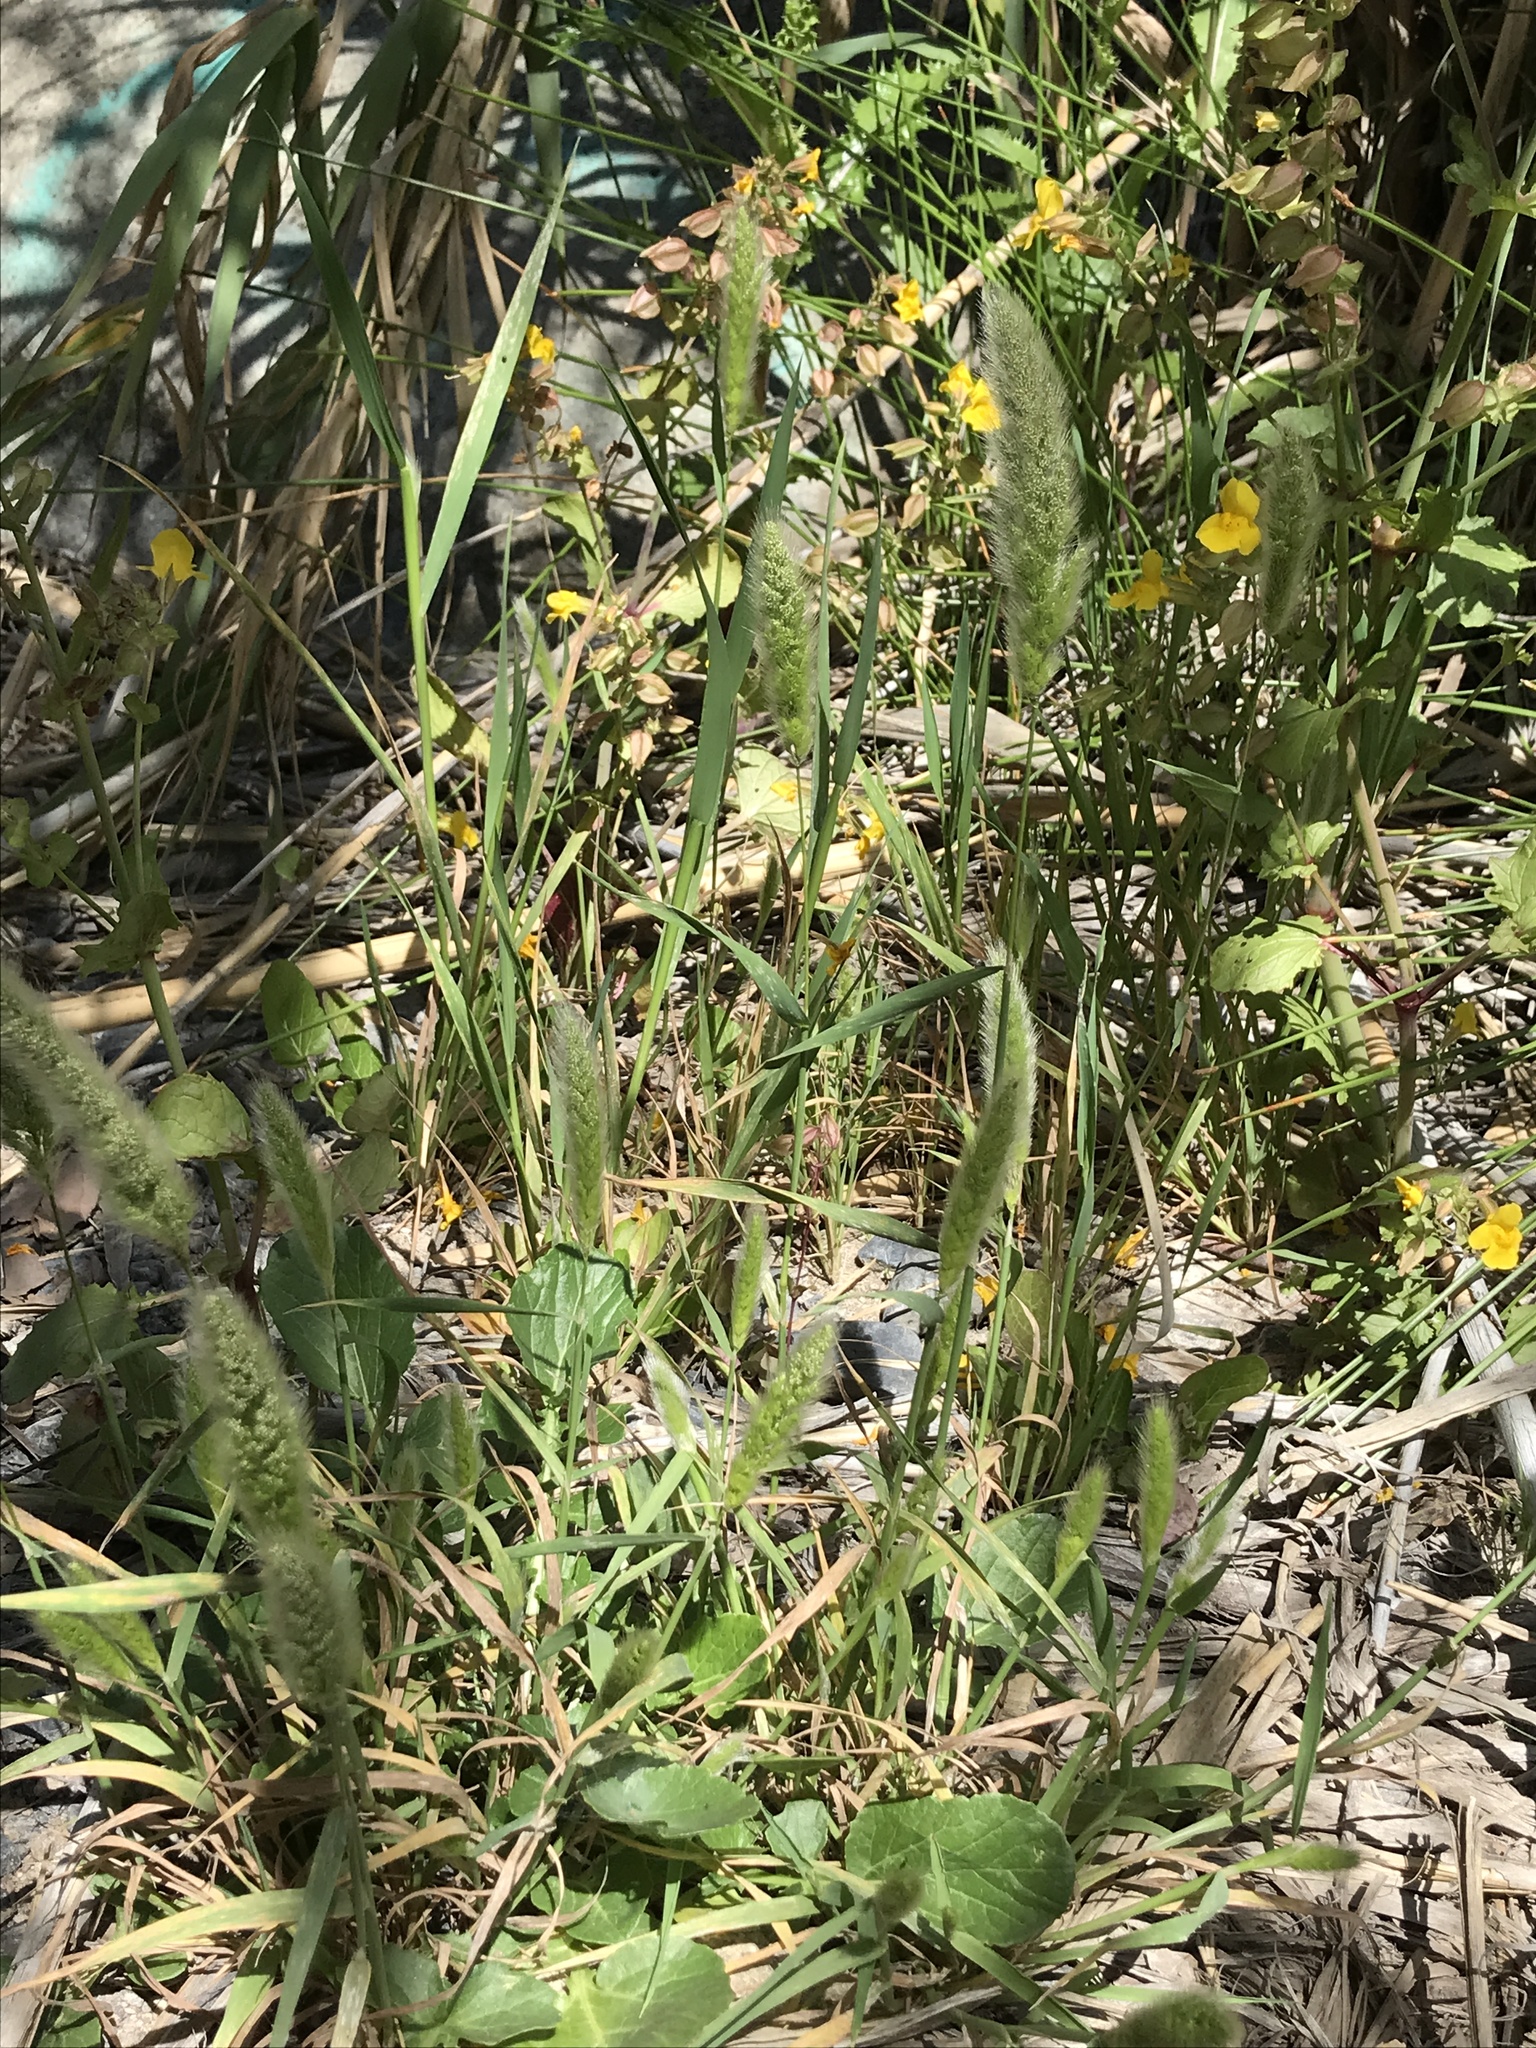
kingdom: Plantae
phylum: Tracheophyta
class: Liliopsida
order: Poales
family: Poaceae
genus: Polypogon
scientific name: Polypogon monspeliensis
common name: Annual rabbitsfoot grass
